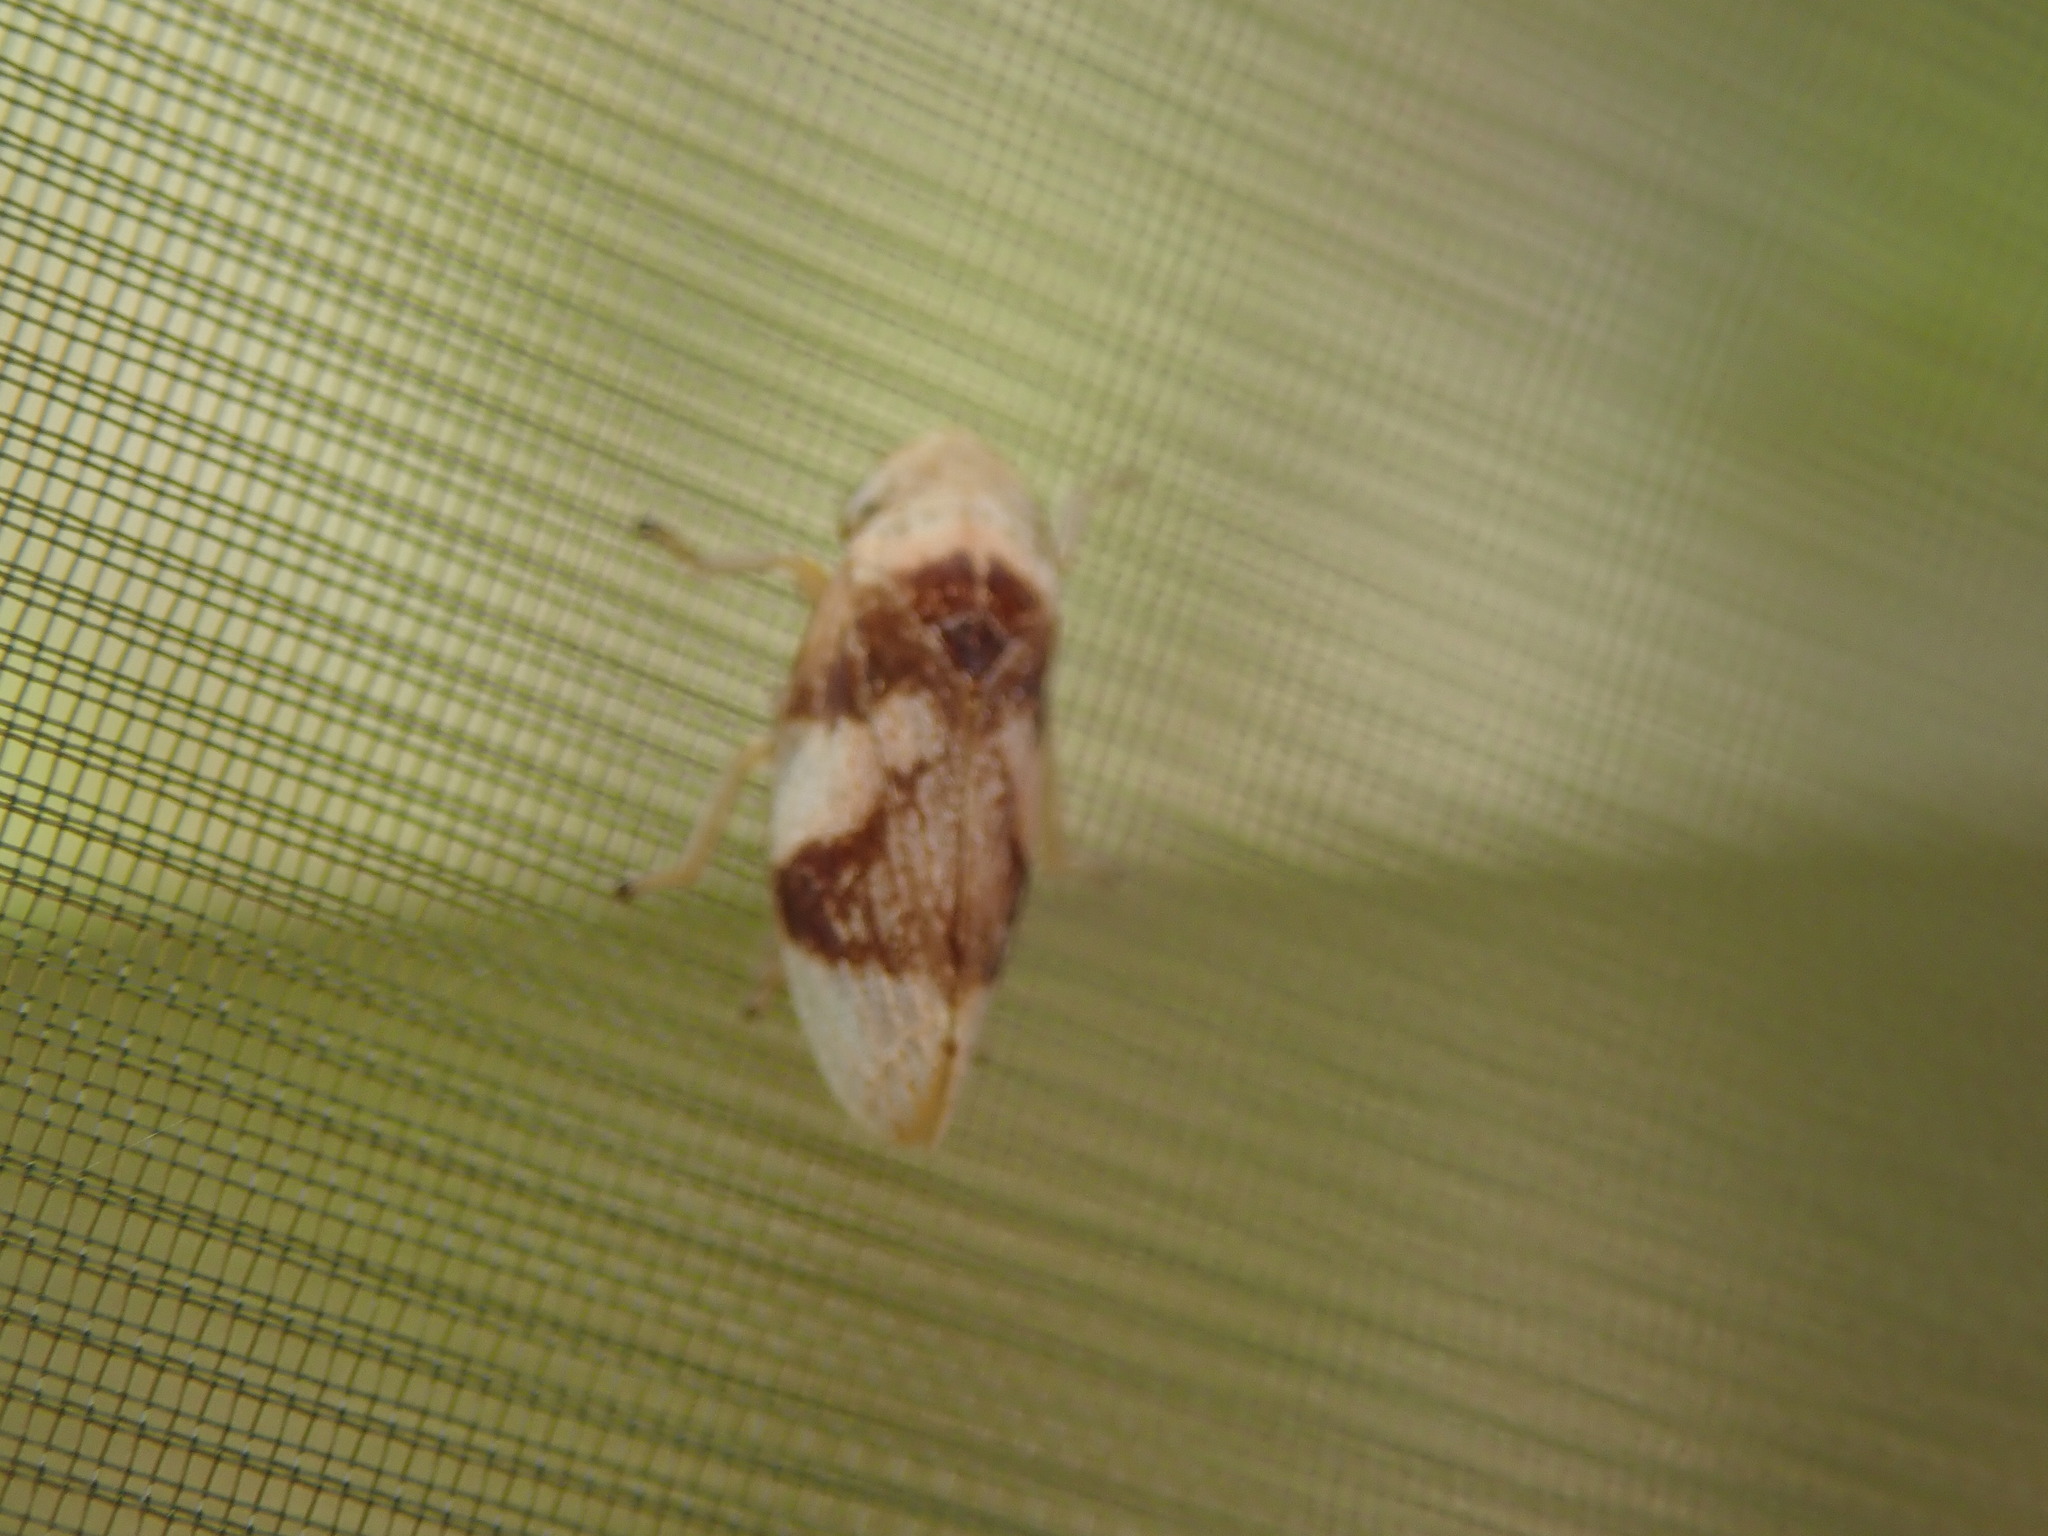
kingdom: Animalia
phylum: Arthropoda
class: Insecta
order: Hemiptera
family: Aphrophoridae
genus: Philaenus
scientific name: Philaenus spumarius
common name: Meadow spittlebug
